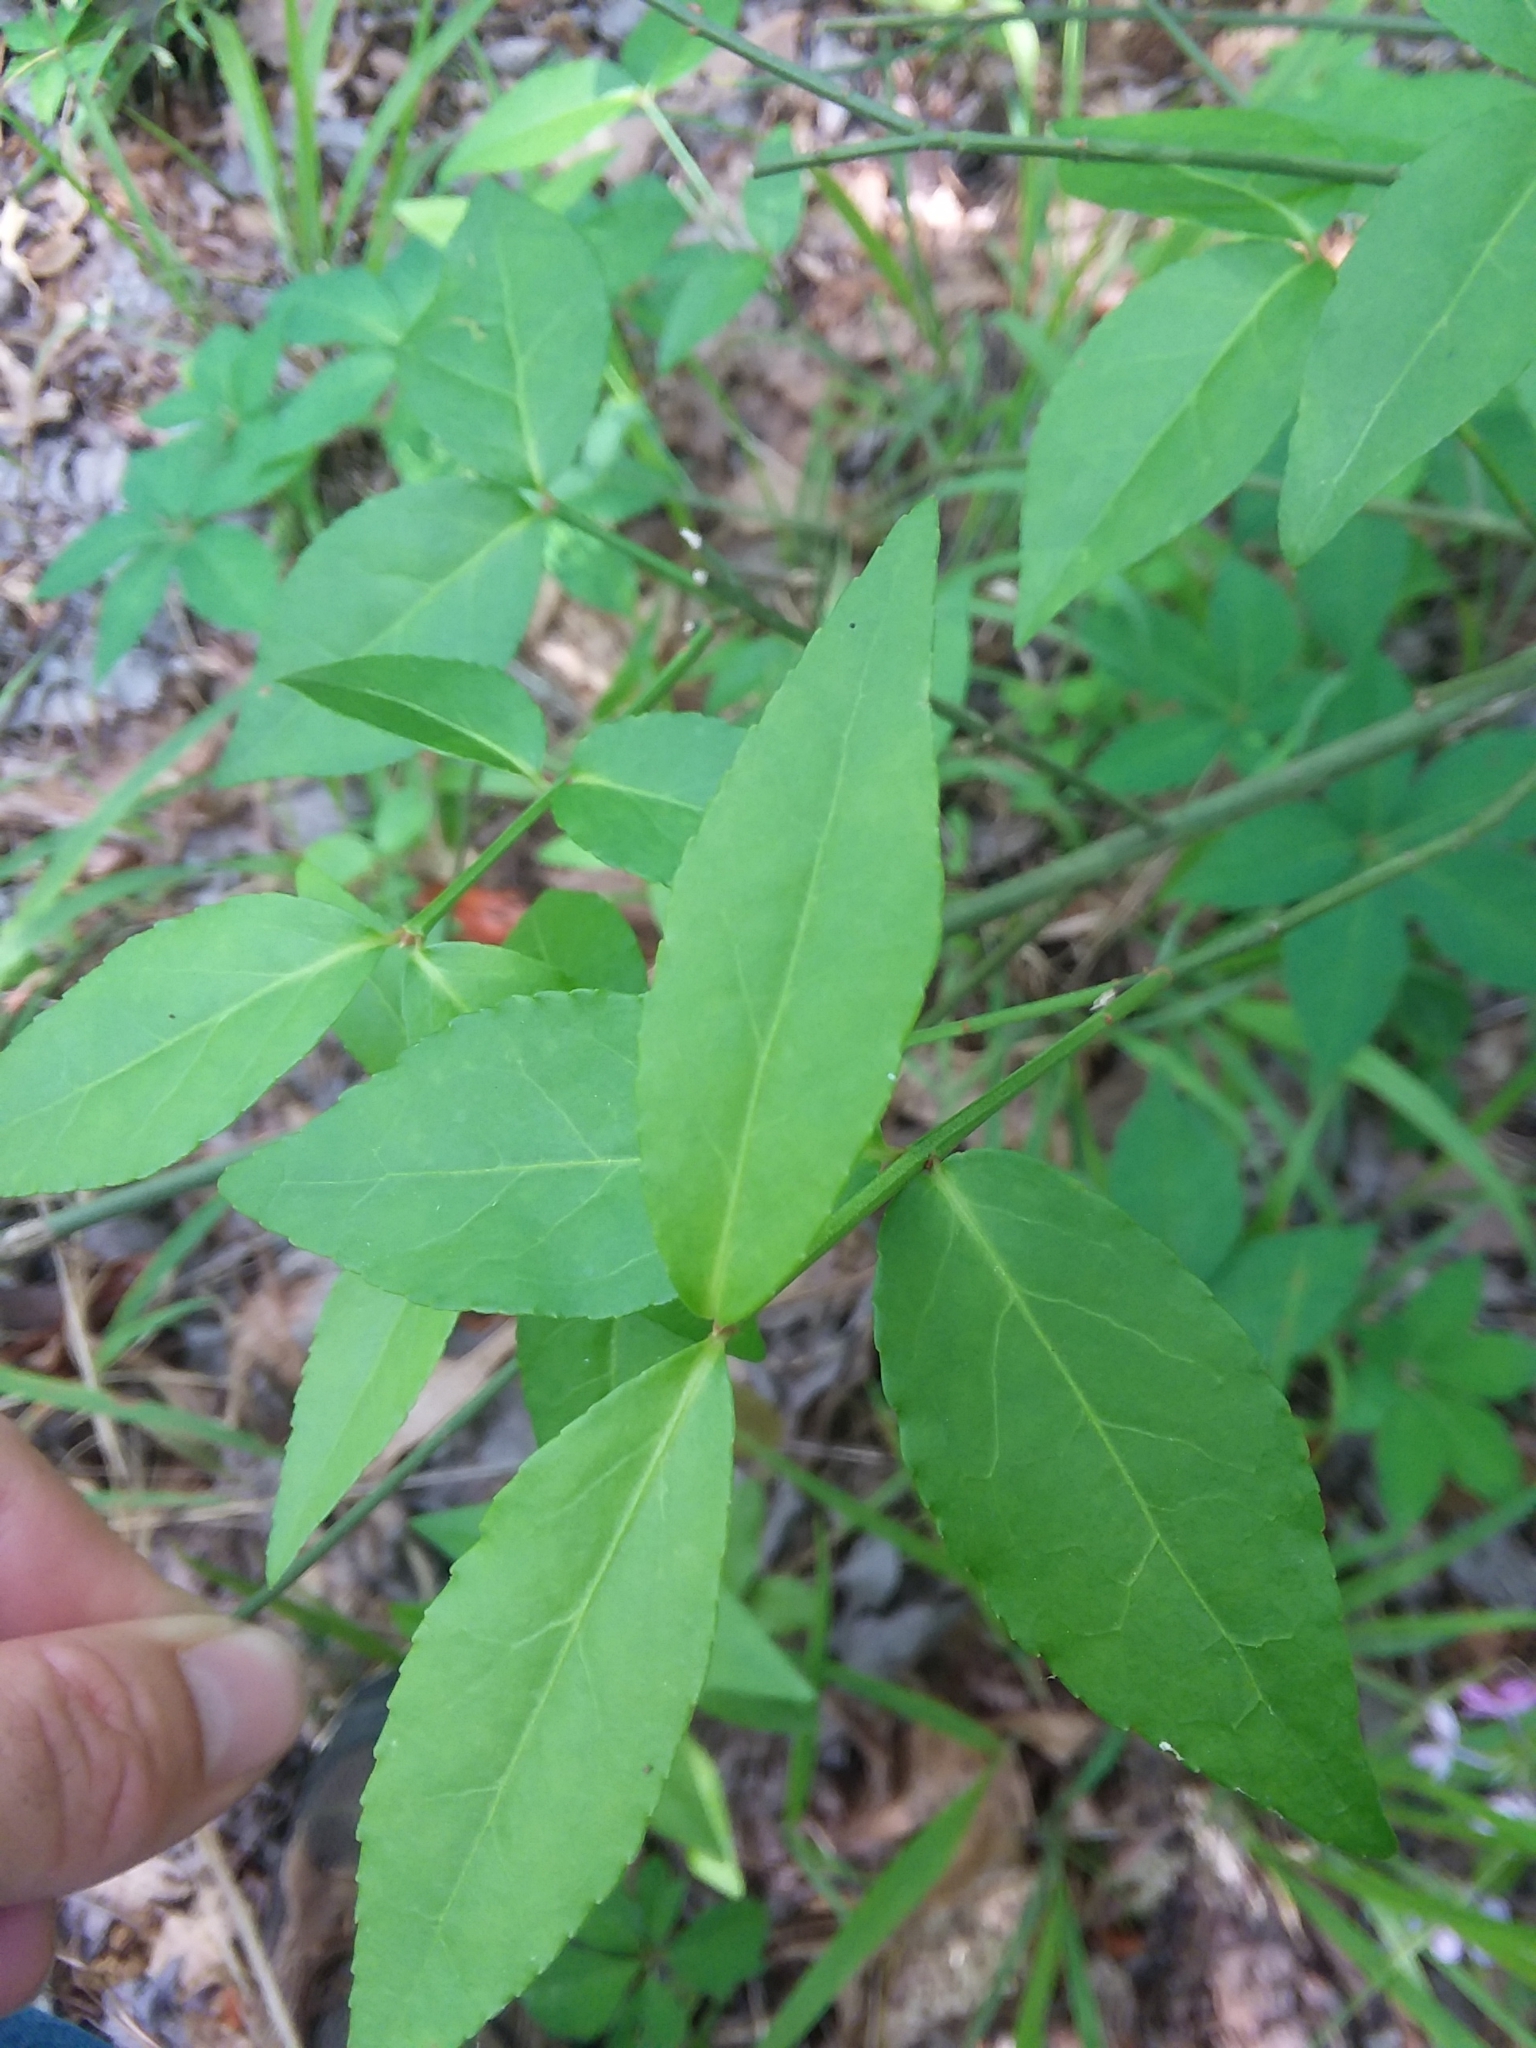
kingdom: Plantae
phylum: Tracheophyta
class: Magnoliopsida
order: Celastrales
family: Celastraceae
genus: Euonymus
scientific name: Euonymus americanus
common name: Bursting-heart
